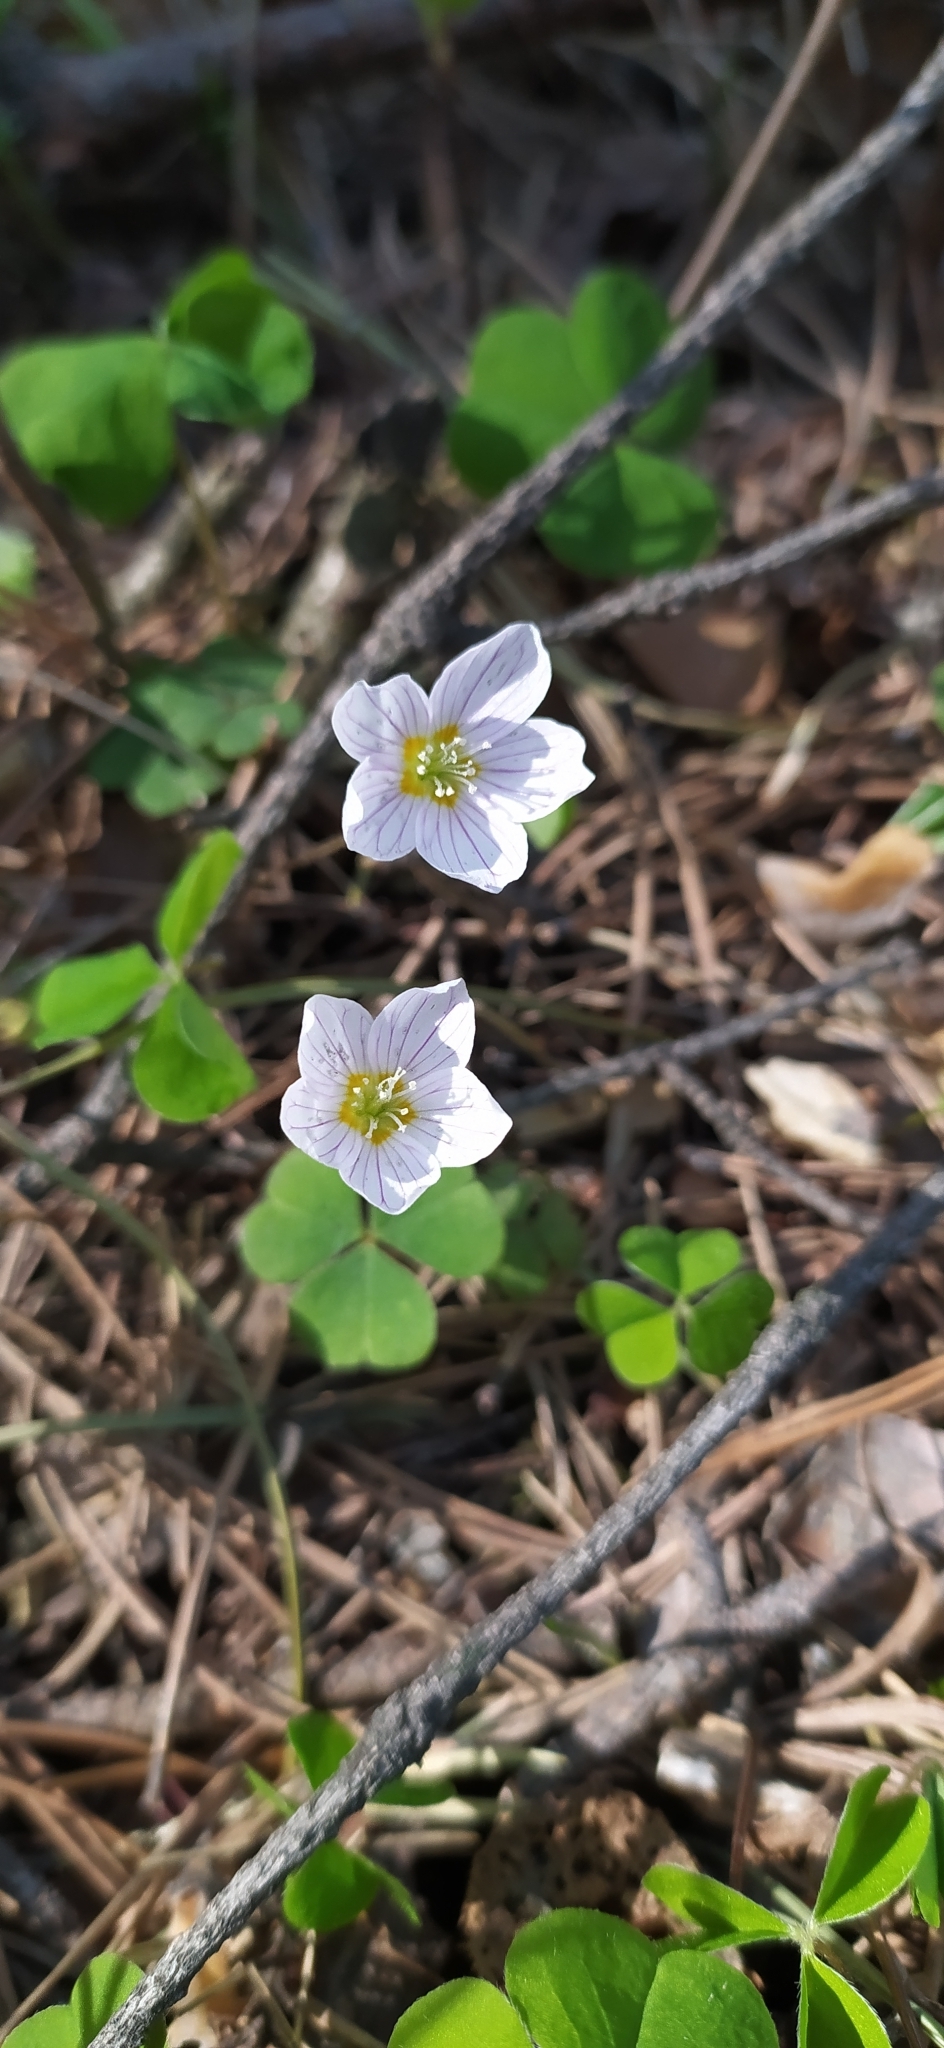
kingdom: Plantae
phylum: Tracheophyta
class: Magnoliopsida
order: Oxalidales
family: Oxalidaceae
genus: Oxalis
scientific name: Oxalis acetosella
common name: Wood-sorrel
